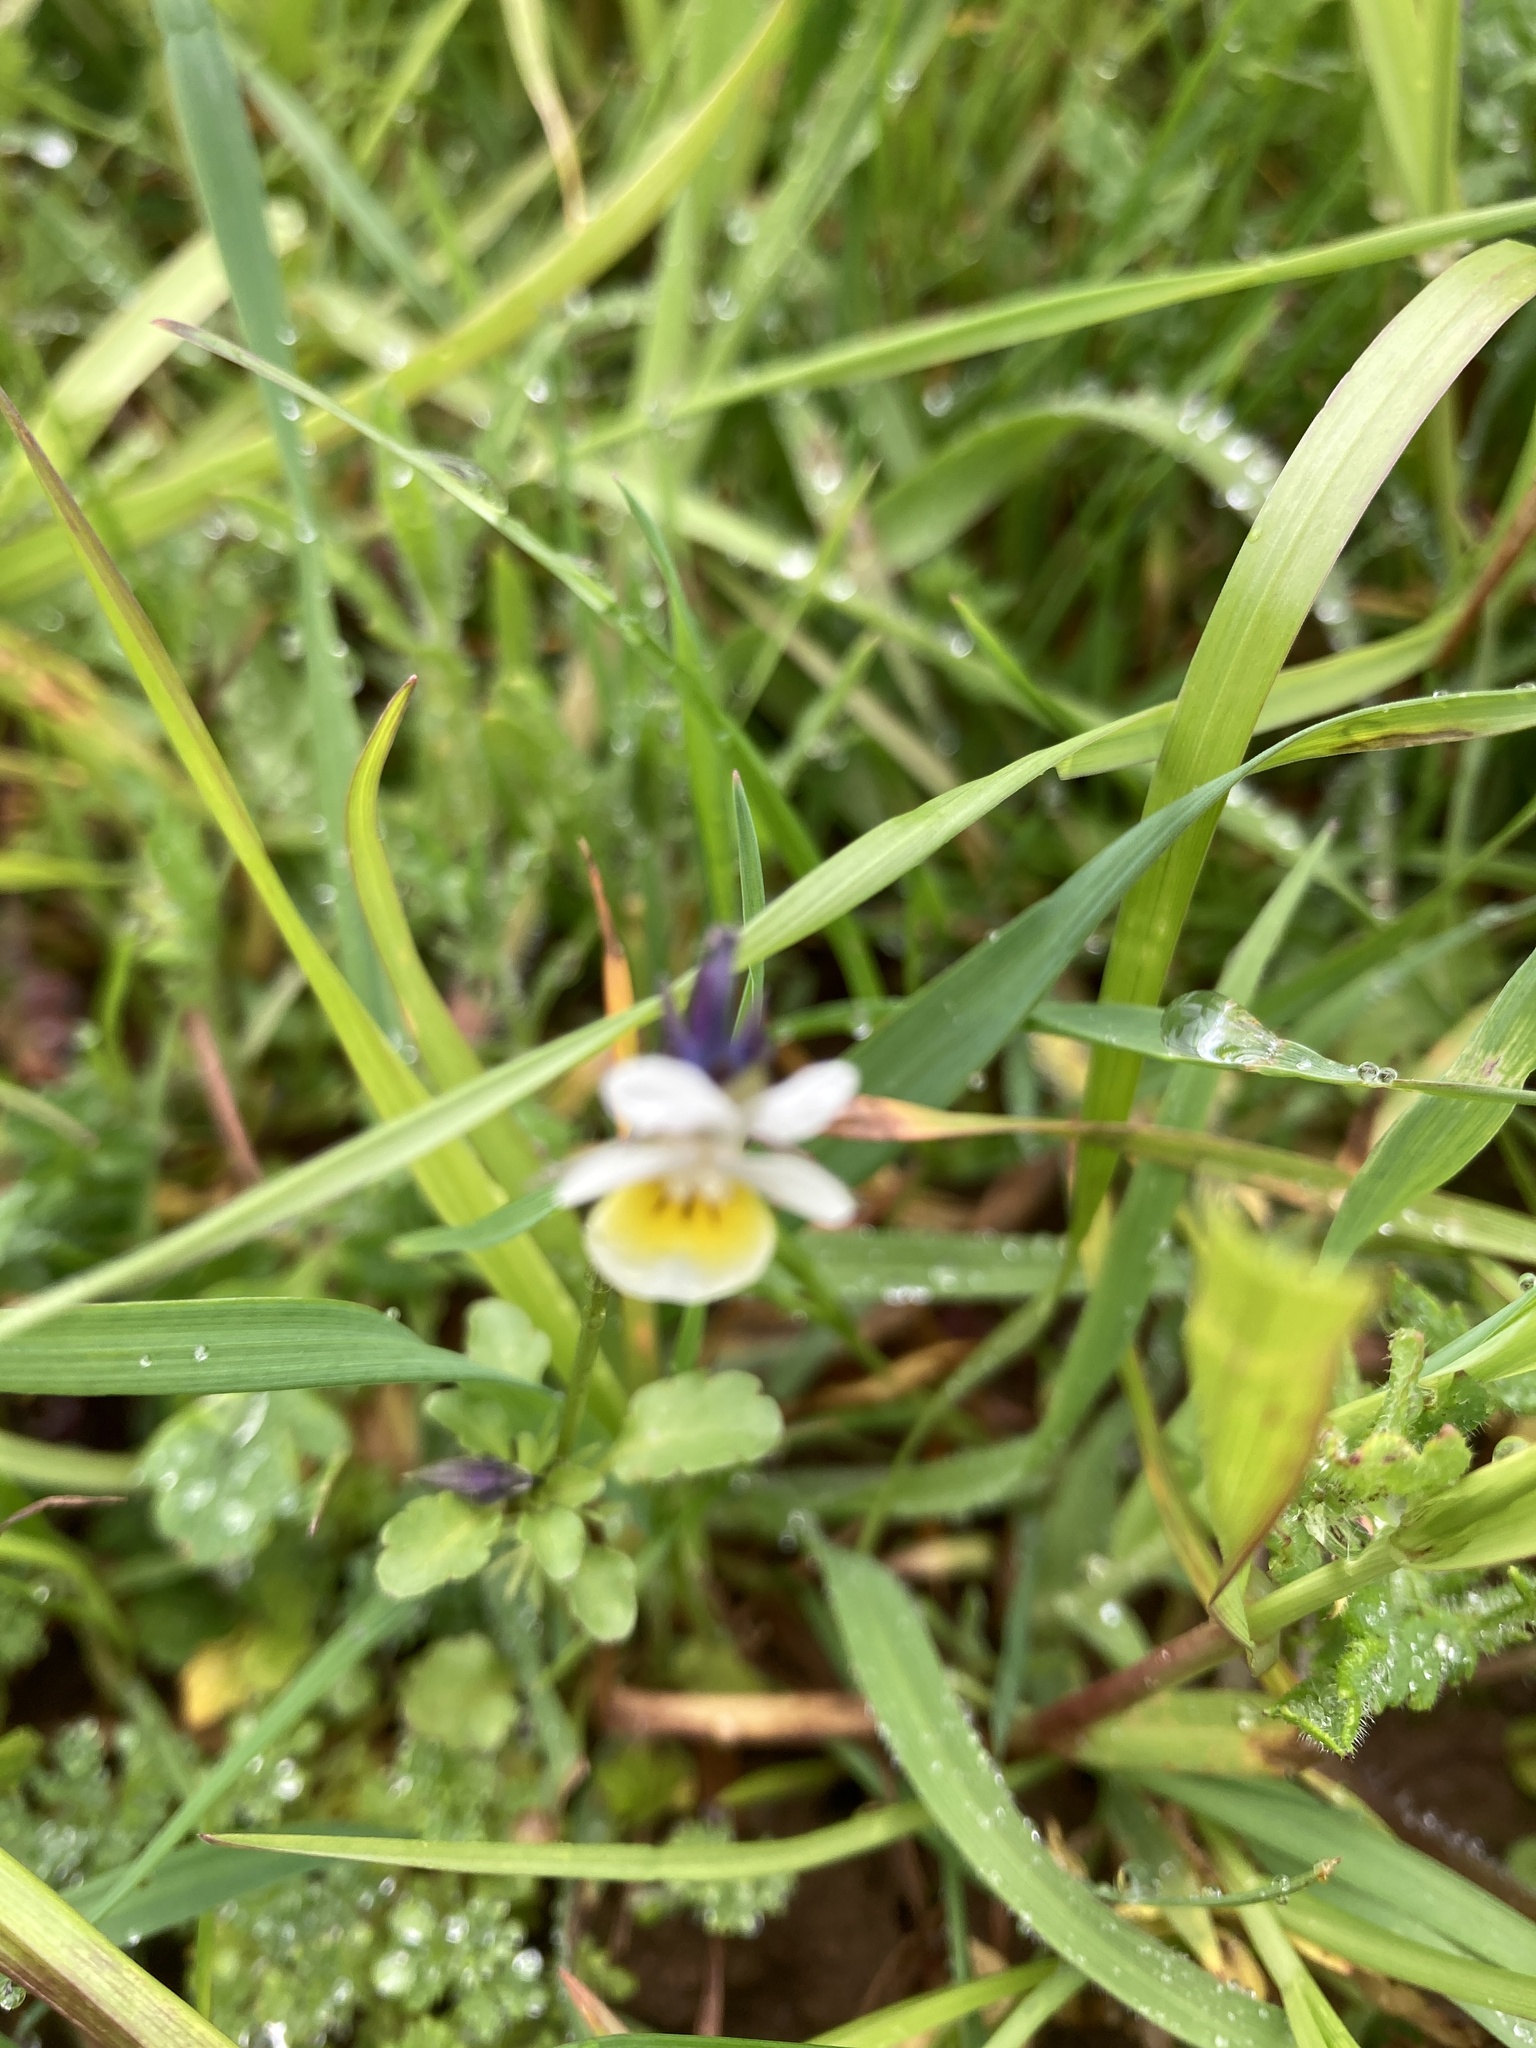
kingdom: Plantae
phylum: Tracheophyta
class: Magnoliopsida
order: Malpighiales
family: Violaceae
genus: Viola
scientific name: Viola arvensis
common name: Field pansy
